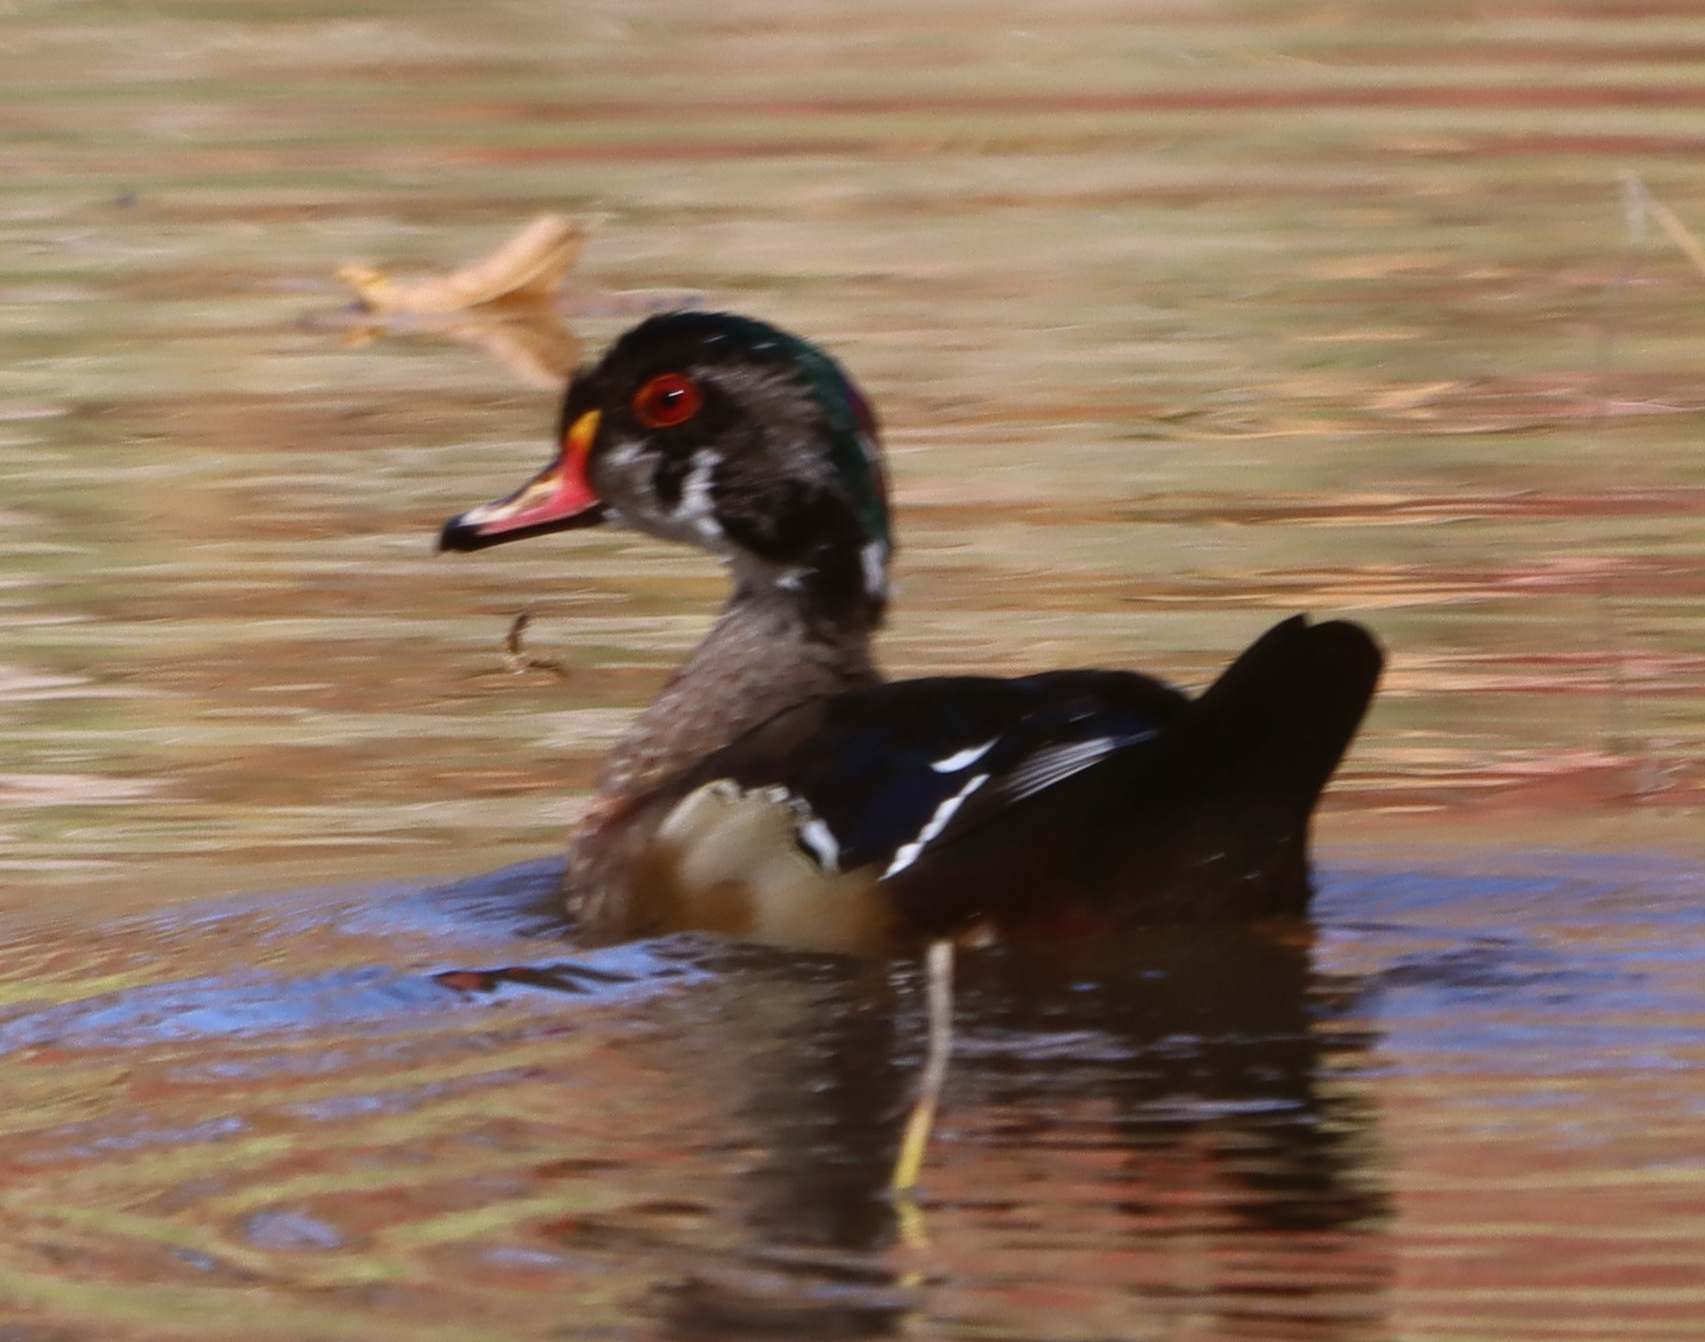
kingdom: Animalia
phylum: Chordata
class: Aves
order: Anseriformes
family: Anatidae
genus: Aix
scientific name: Aix sponsa
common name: Wood duck
